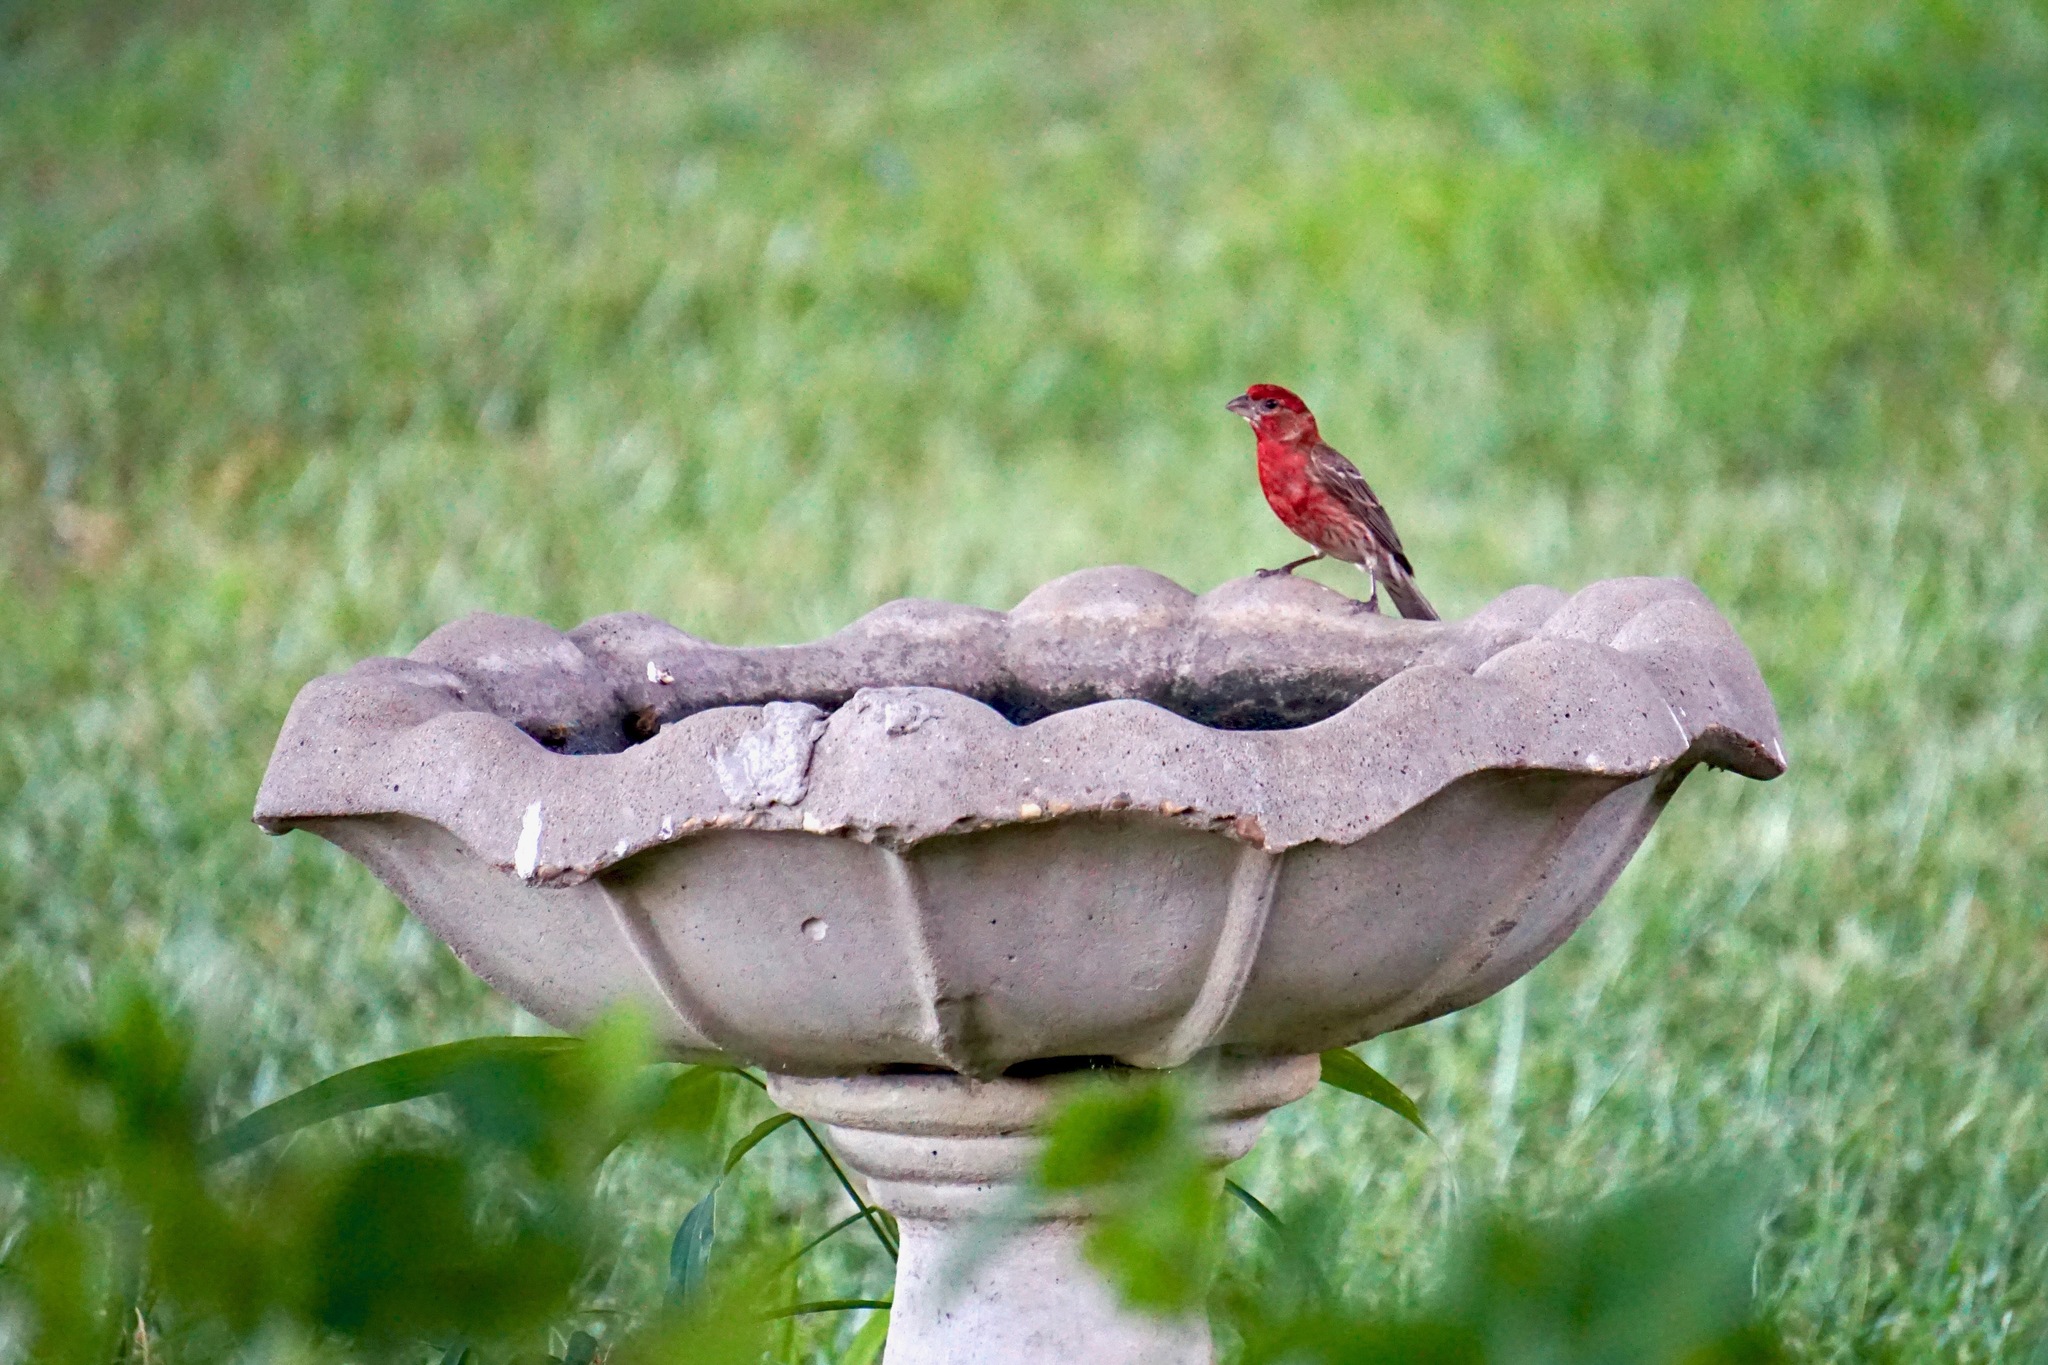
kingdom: Animalia
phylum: Chordata
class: Aves
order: Passeriformes
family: Fringillidae
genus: Haemorhous
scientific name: Haemorhous mexicanus
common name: House finch
